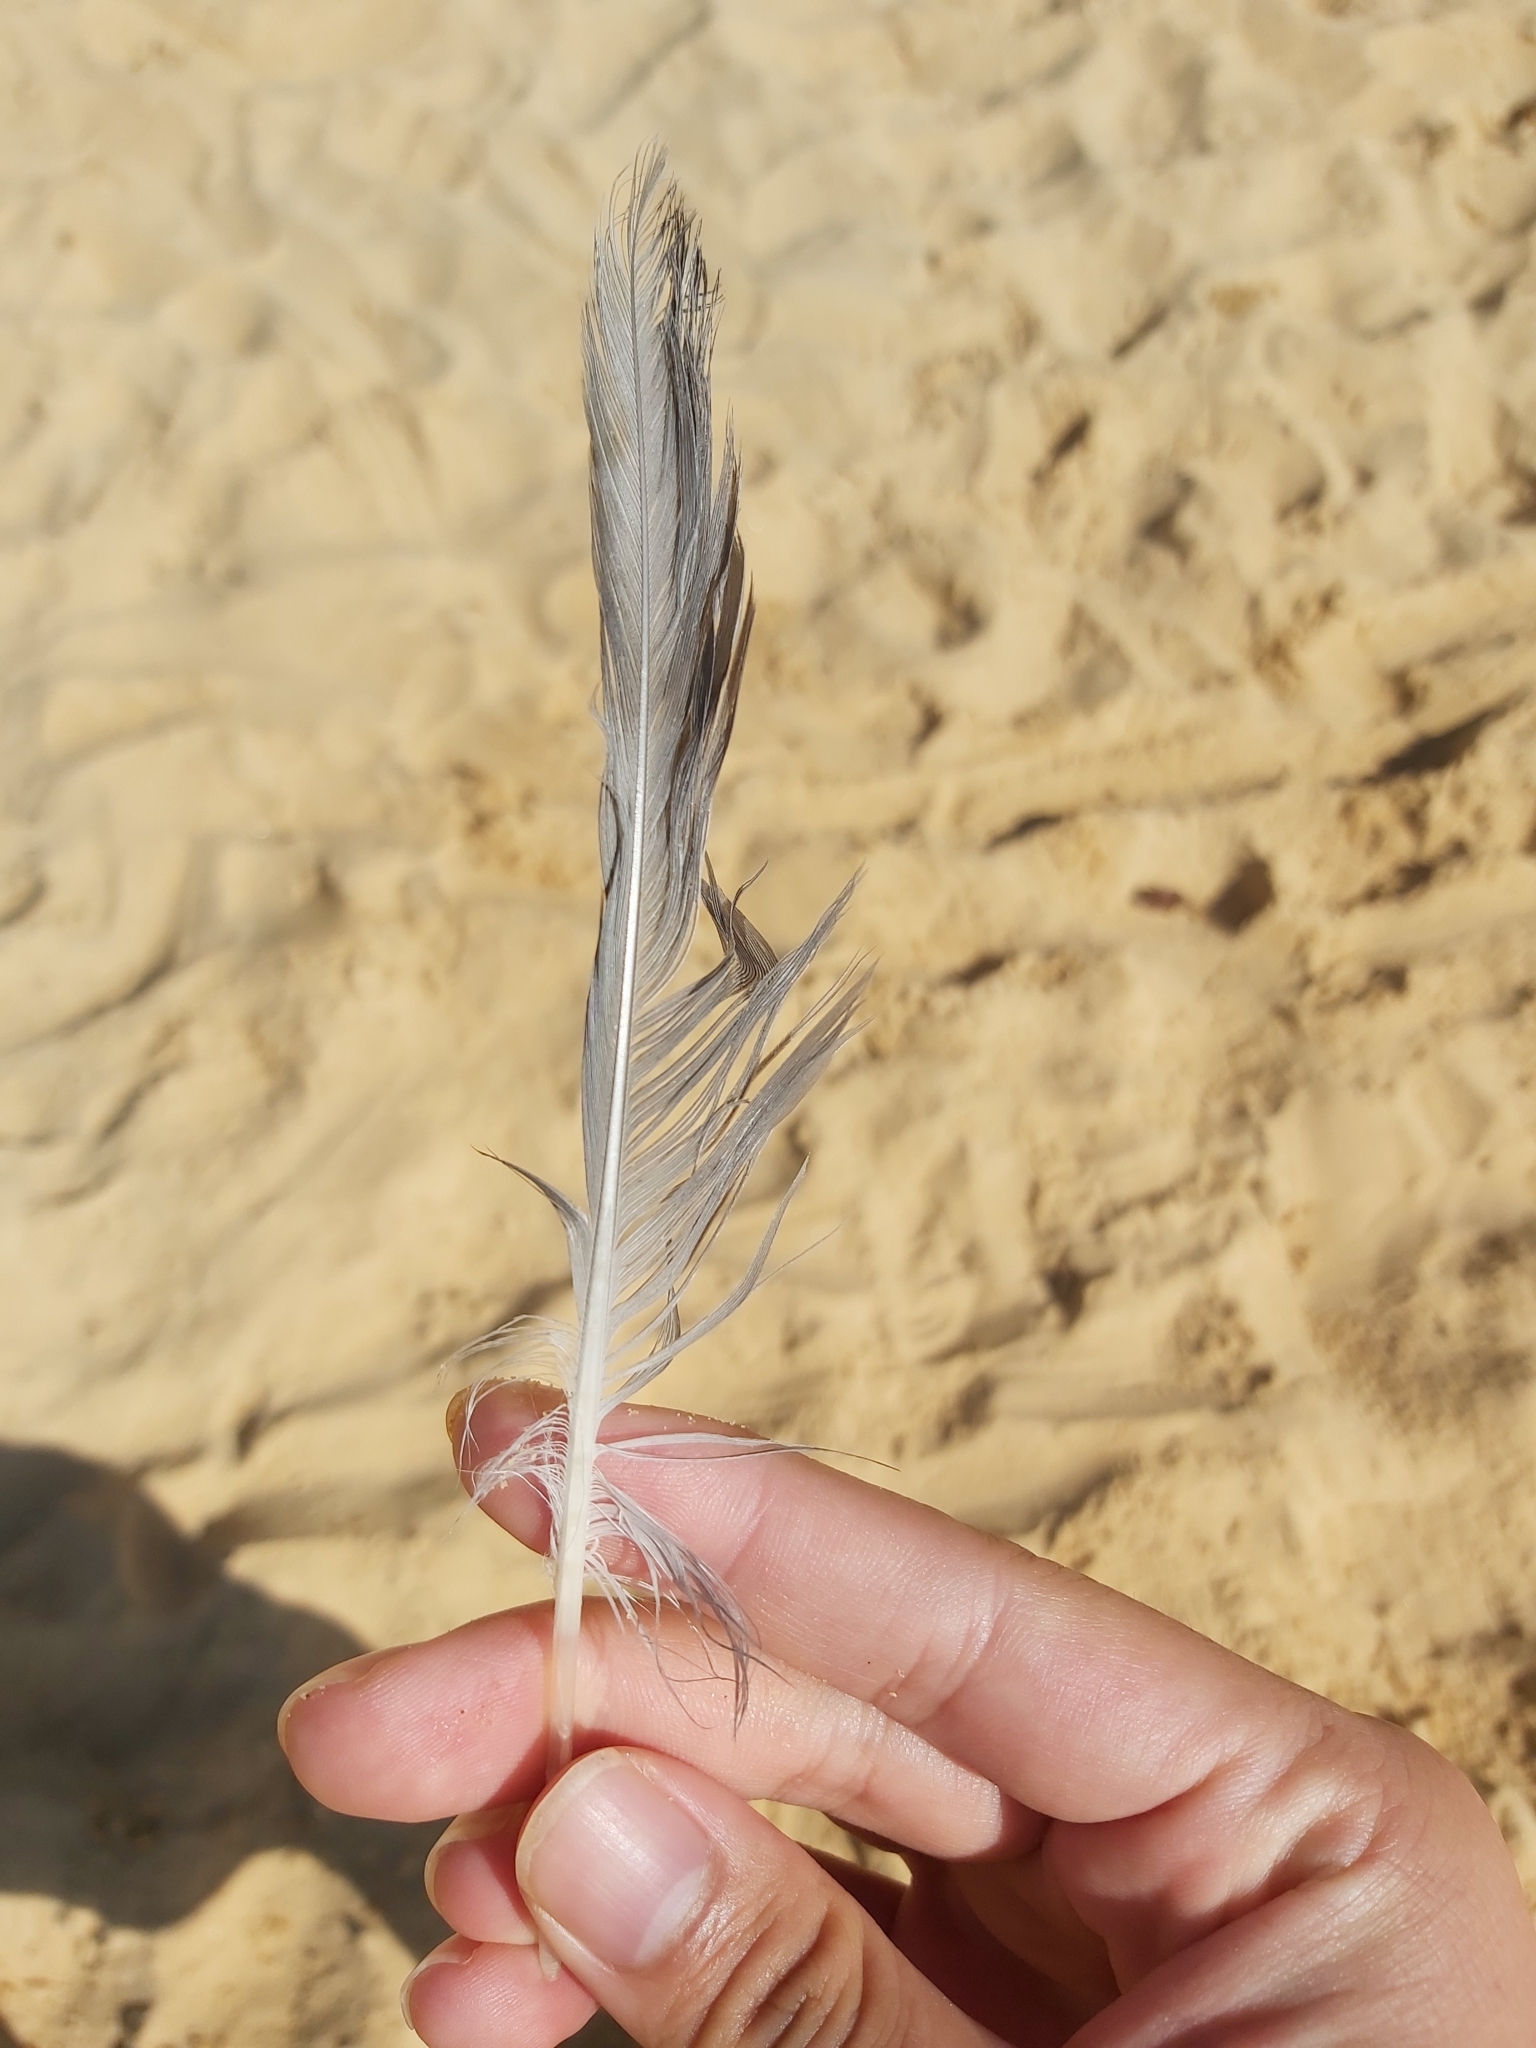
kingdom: Animalia
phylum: Chordata
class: Aves
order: Charadriiformes
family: Laridae
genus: Chroicocephalus
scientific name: Chroicocephalus novaehollandiae
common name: Silver gull
